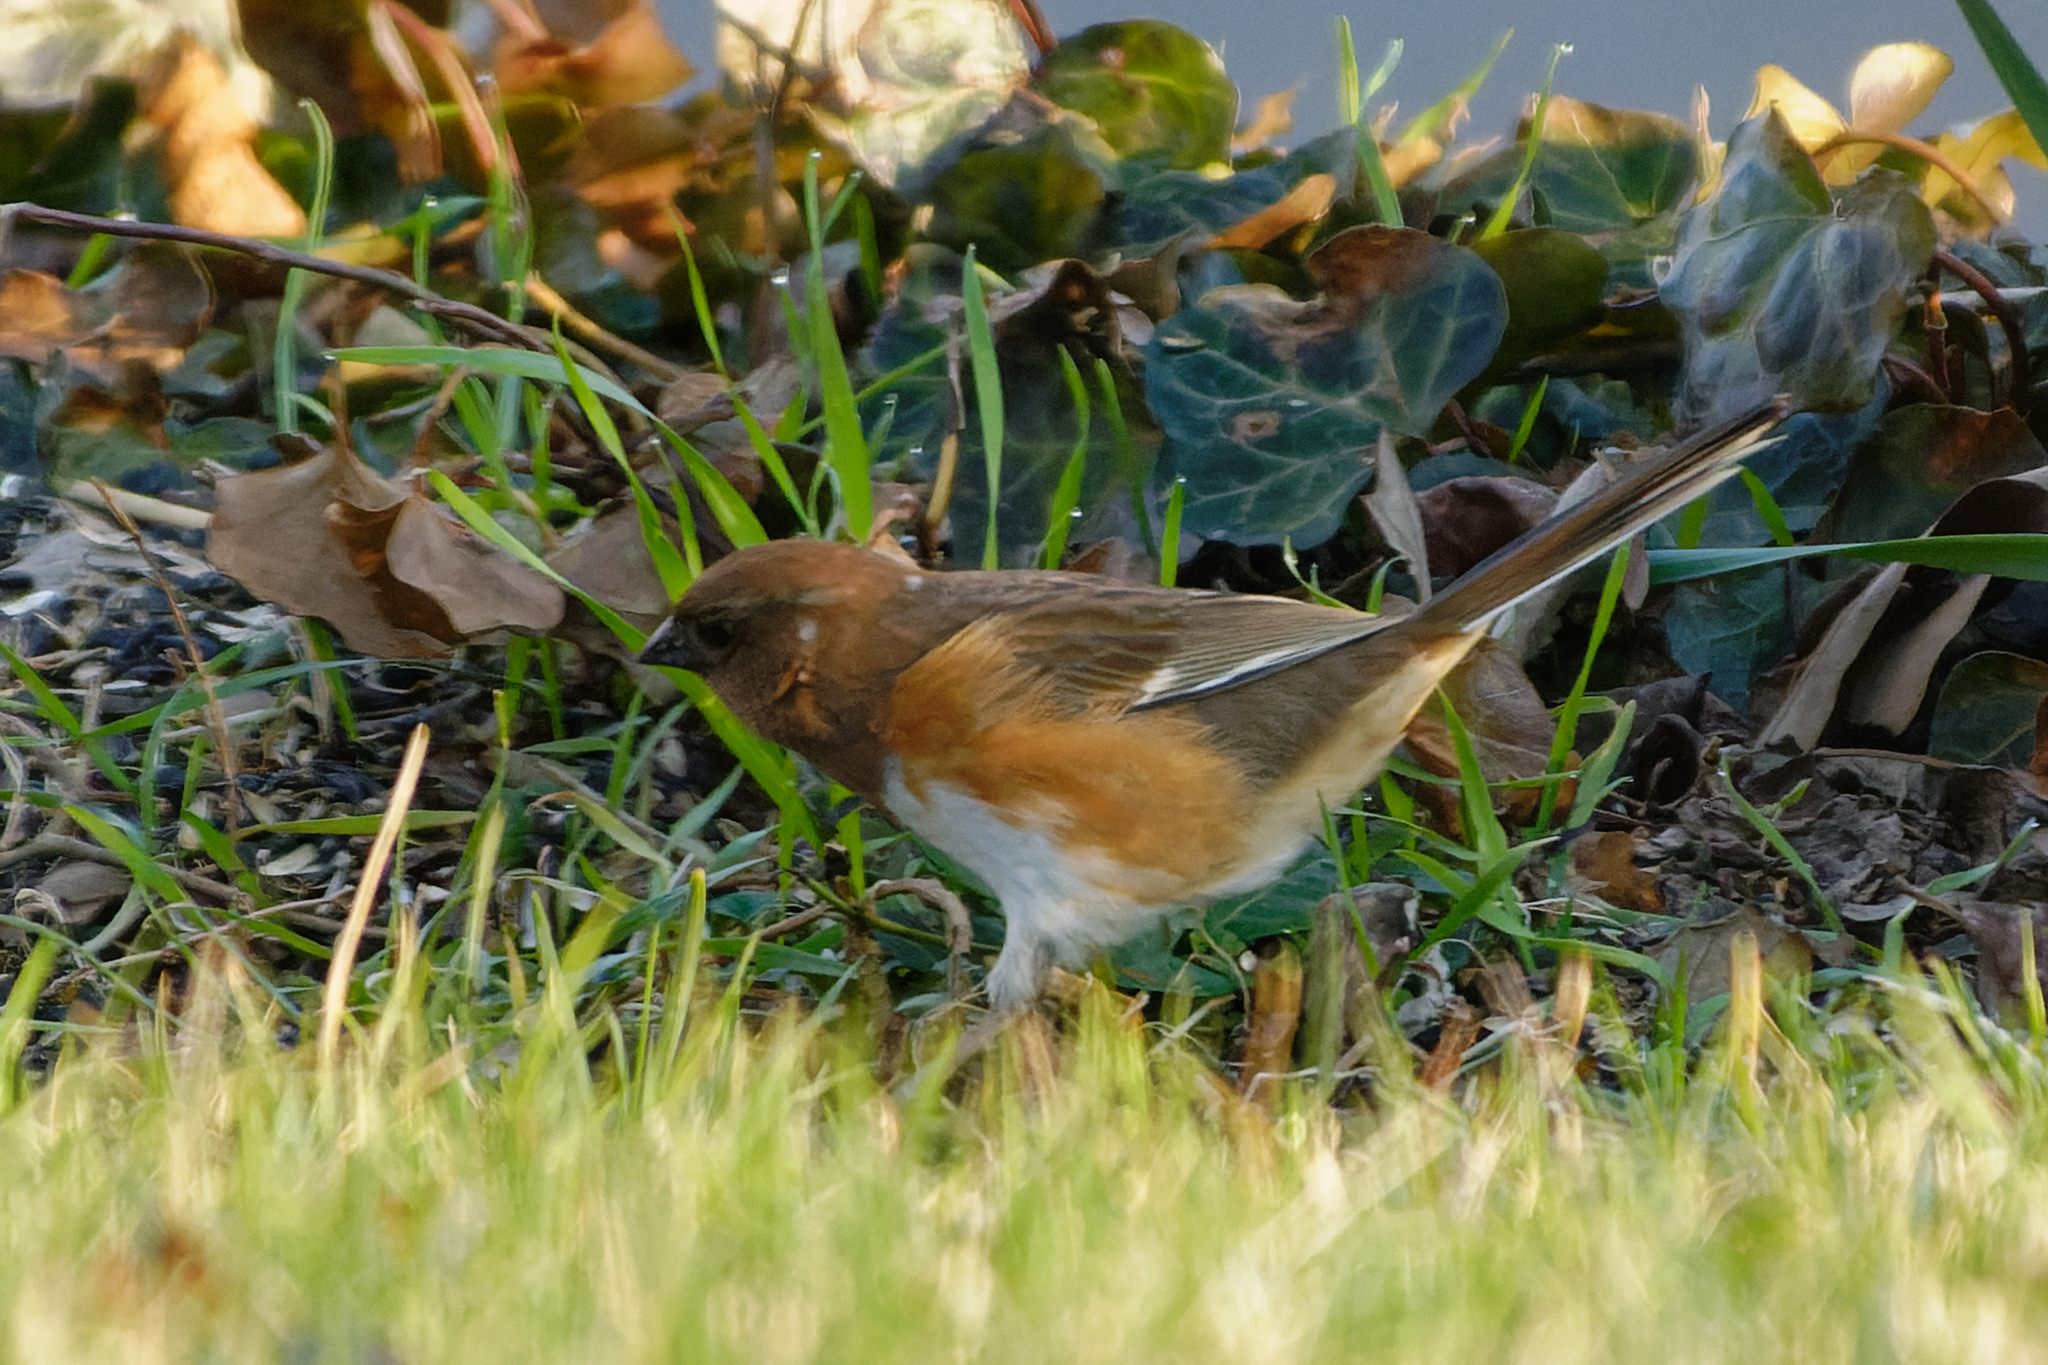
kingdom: Animalia
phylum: Chordata
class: Aves
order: Passeriformes
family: Passerellidae
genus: Pipilo
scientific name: Pipilo erythrophthalmus
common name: Eastern towhee
